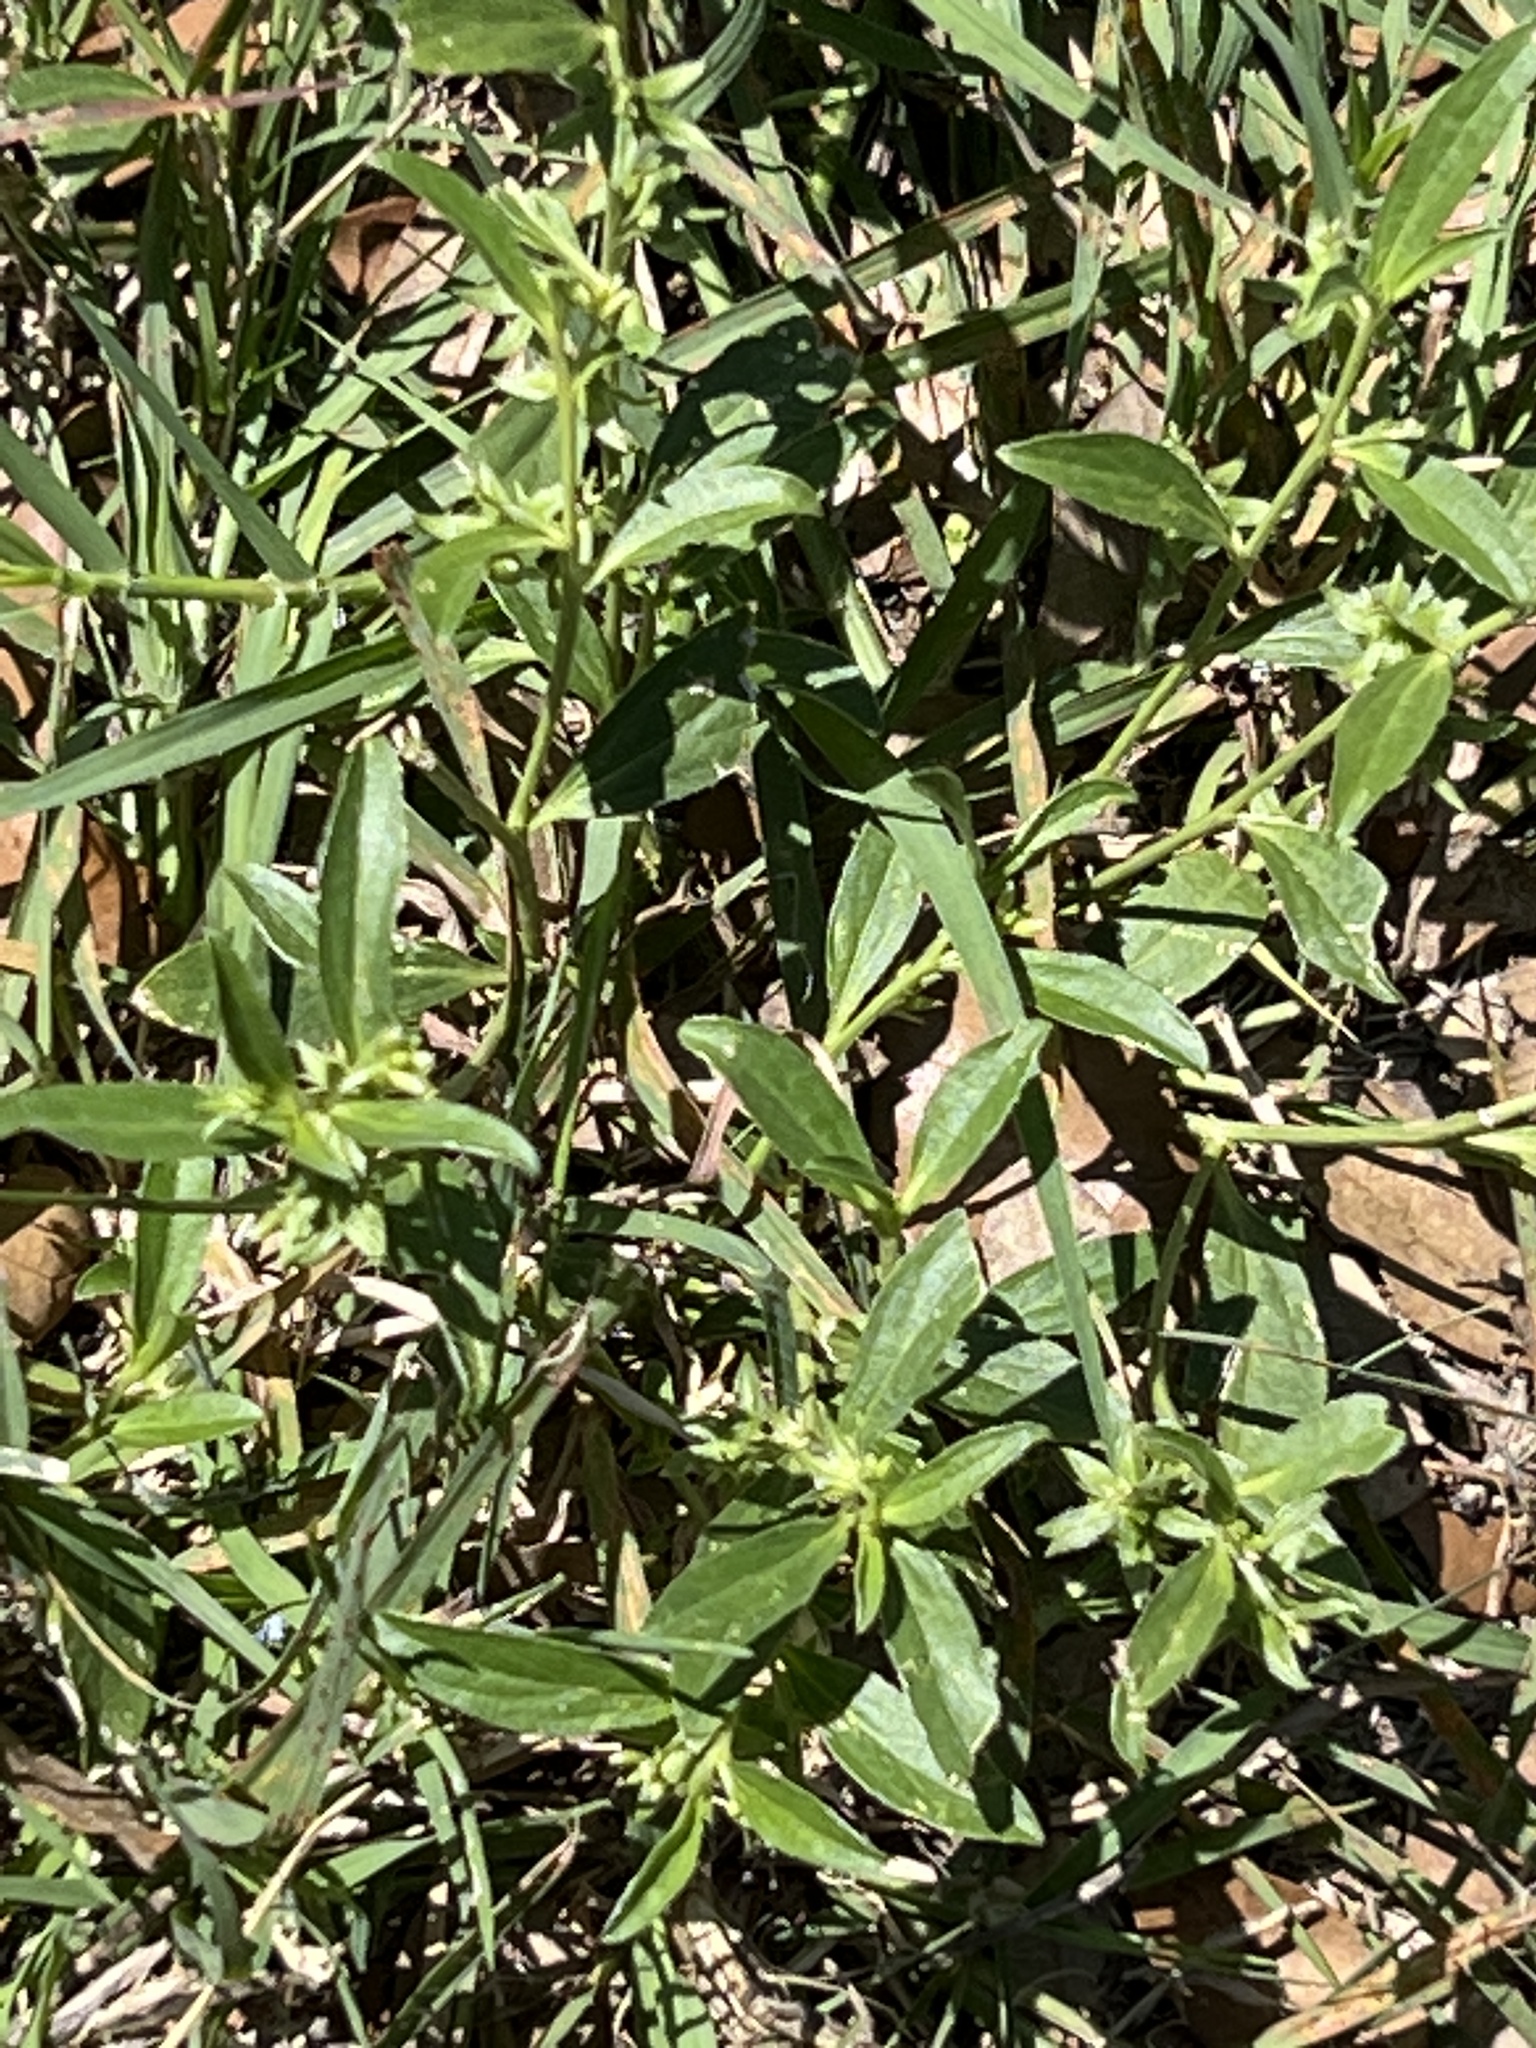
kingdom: Plantae
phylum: Tracheophyta
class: Magnoliopsida
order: Malpighiales
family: Euphorbiaceae
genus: Ditaxis
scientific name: Ditaxis humilis
